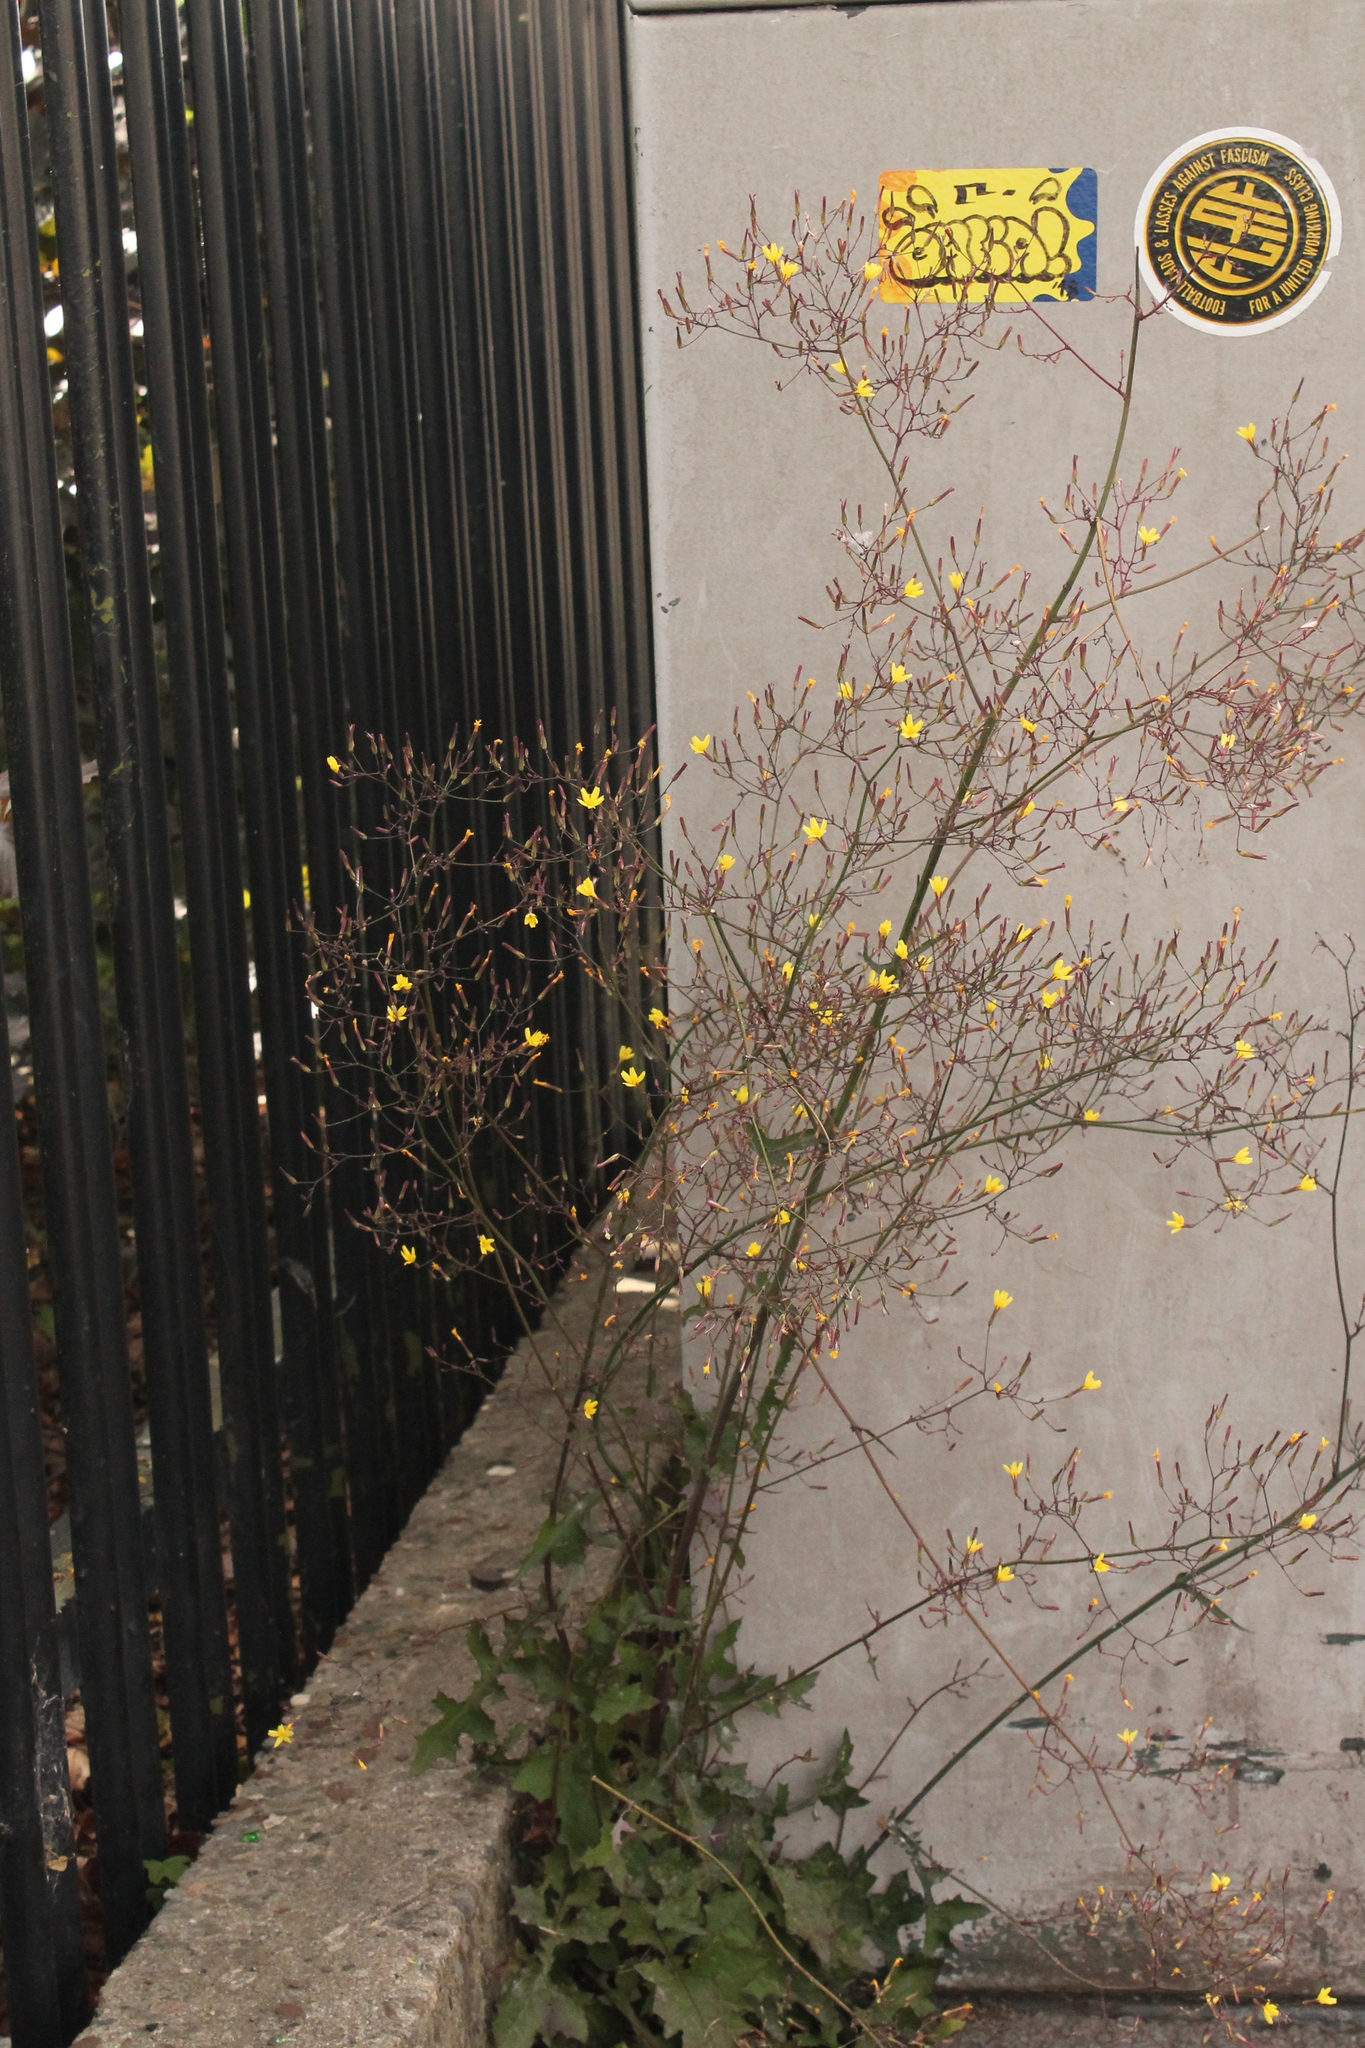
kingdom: Plantae
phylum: Tracheophyta
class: Magnoliopsida
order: Asterales
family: Asteraceae
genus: Mycelis
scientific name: Mycelis muralis
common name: Wall lettuce
